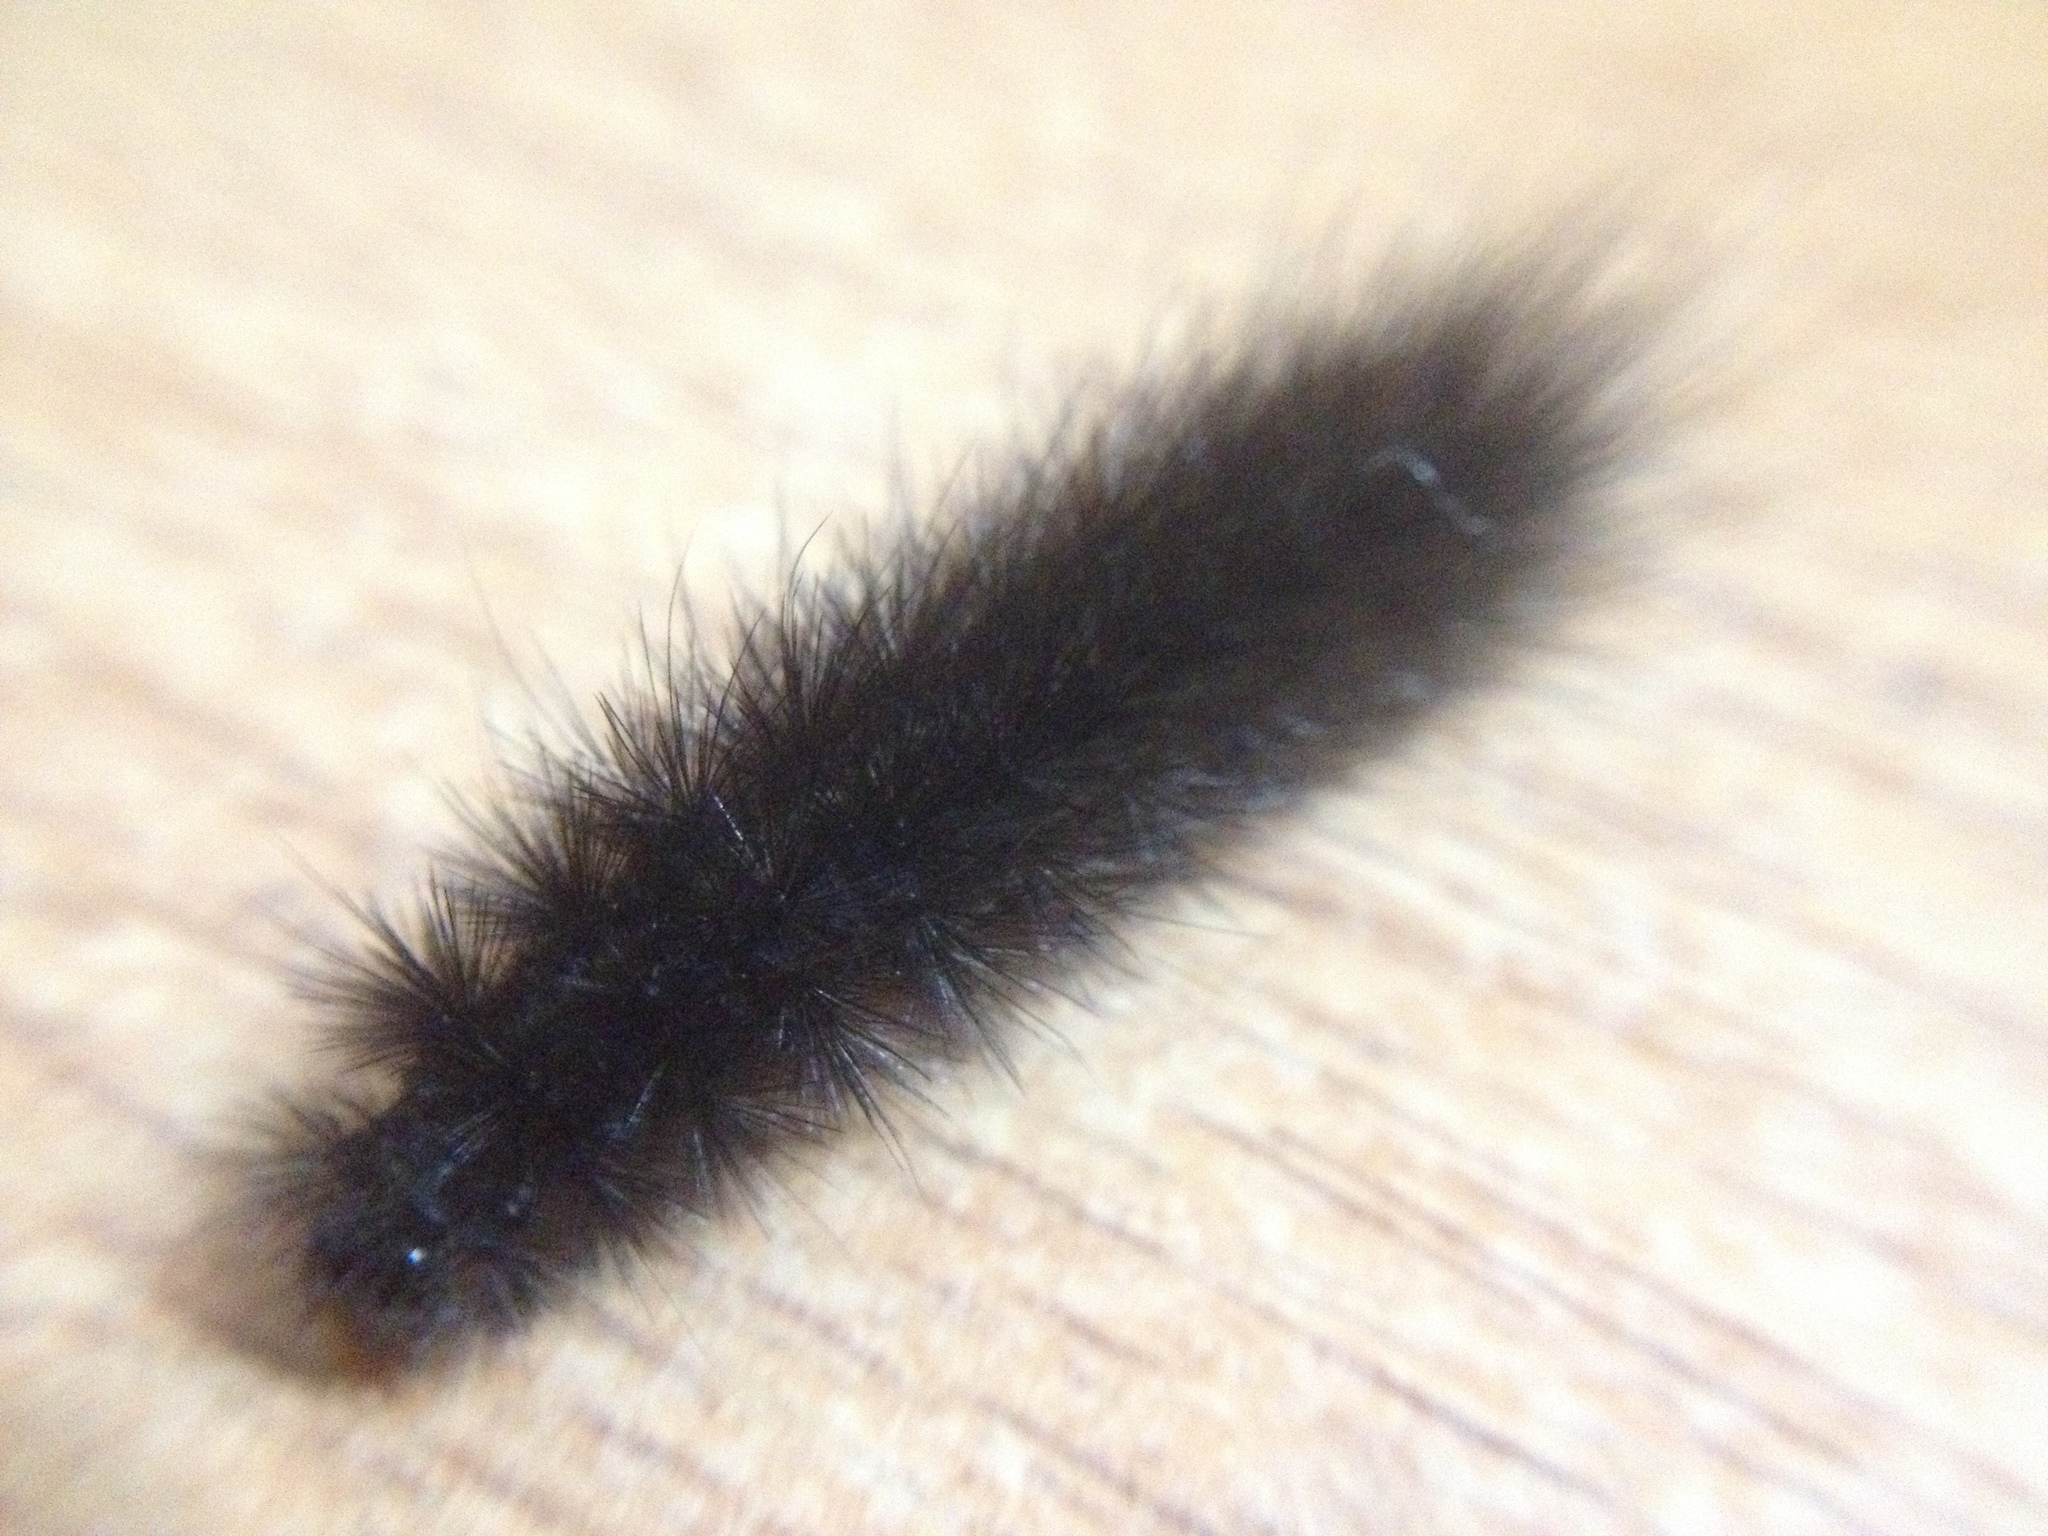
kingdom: Animalia
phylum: Arthropoda
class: Insecta
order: Lepidoptera
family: Erebidae
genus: Phragmatobia
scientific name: Phragmatobia fuliginosa
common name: Ruby tiger
